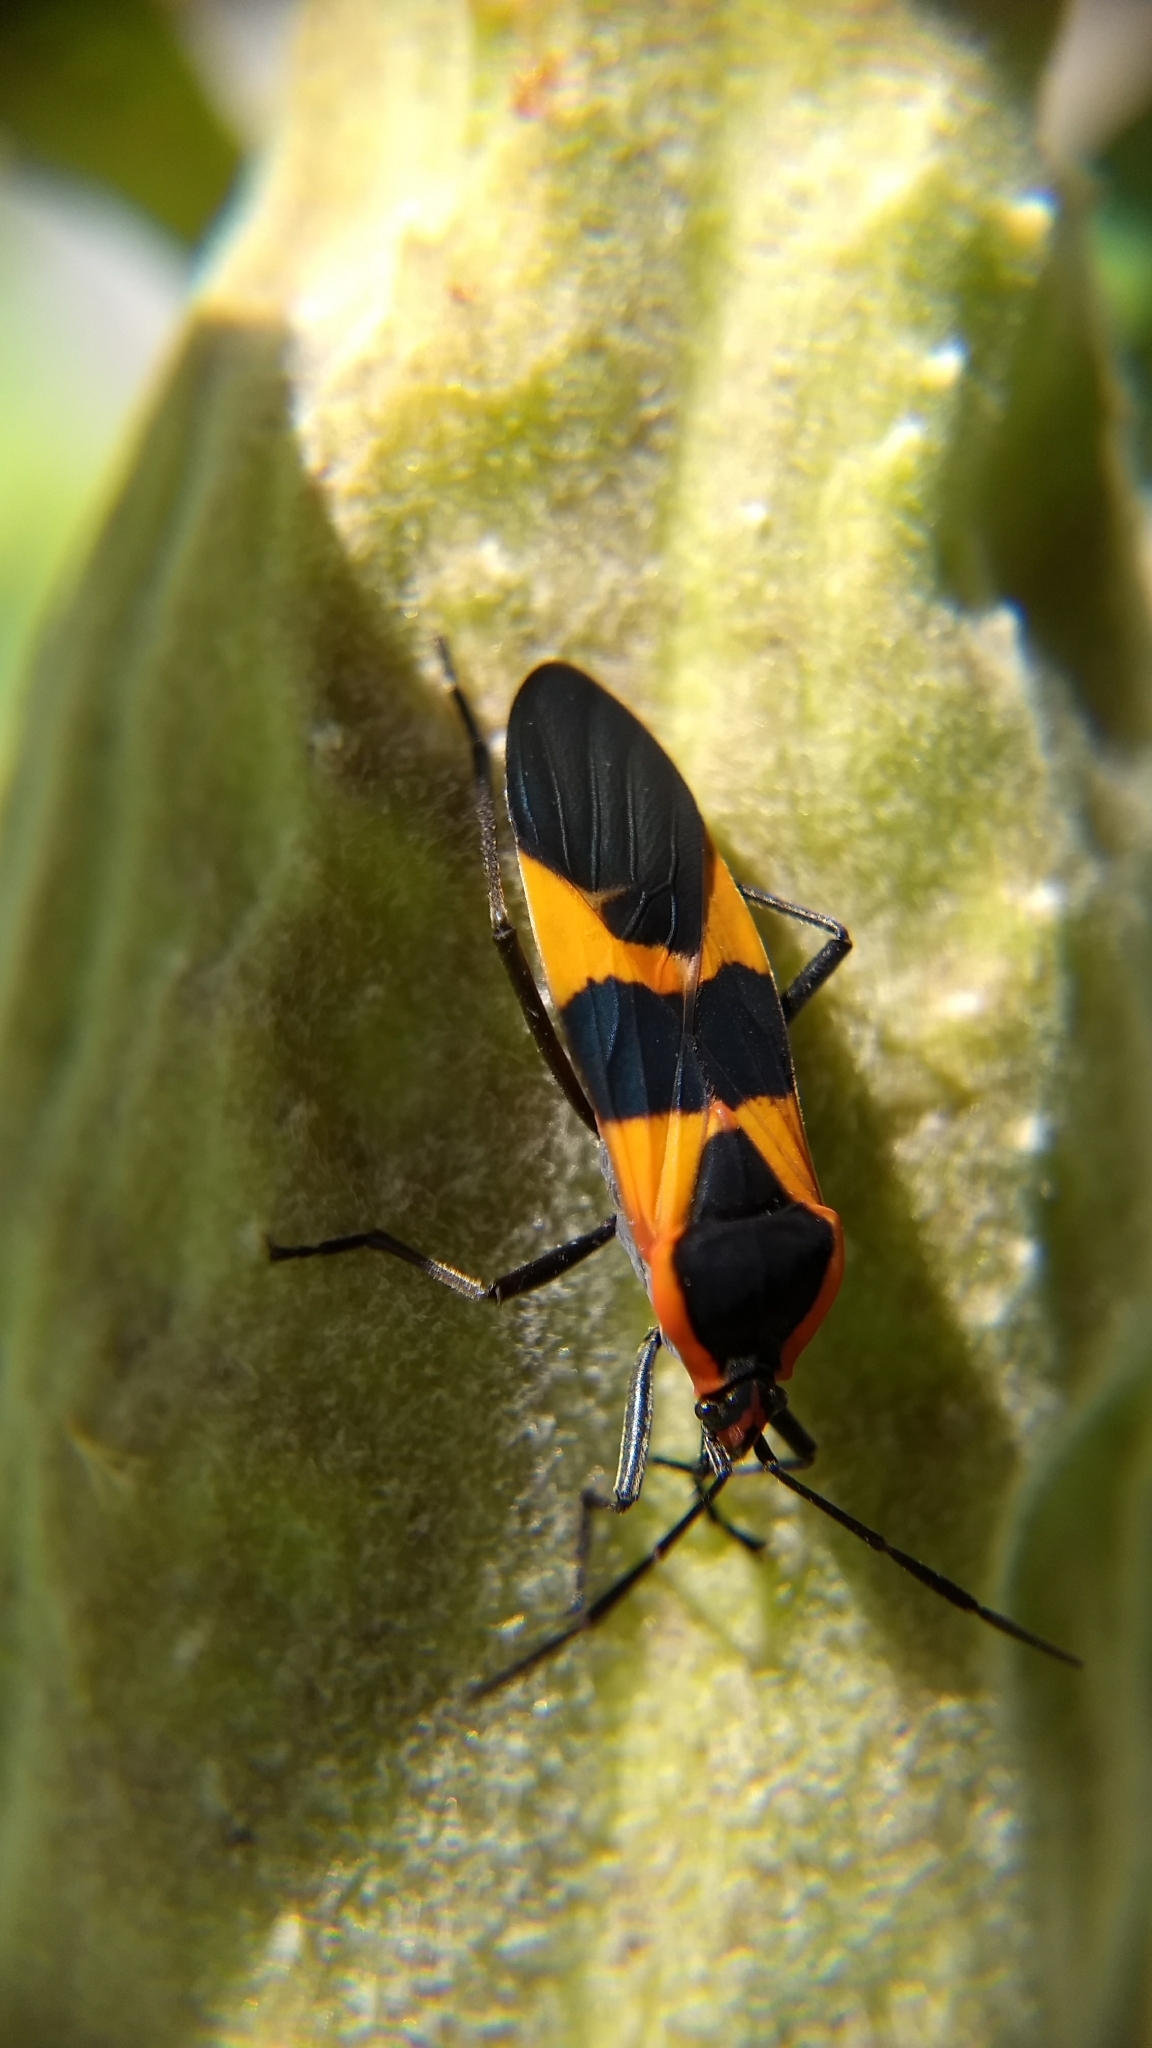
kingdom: Animalia
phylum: Arthropoda
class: Insecta
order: Hemiptera
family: Lygaeidae
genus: Oncopeltus
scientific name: Oncopeltus fasciatus
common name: Large milkweed bug
